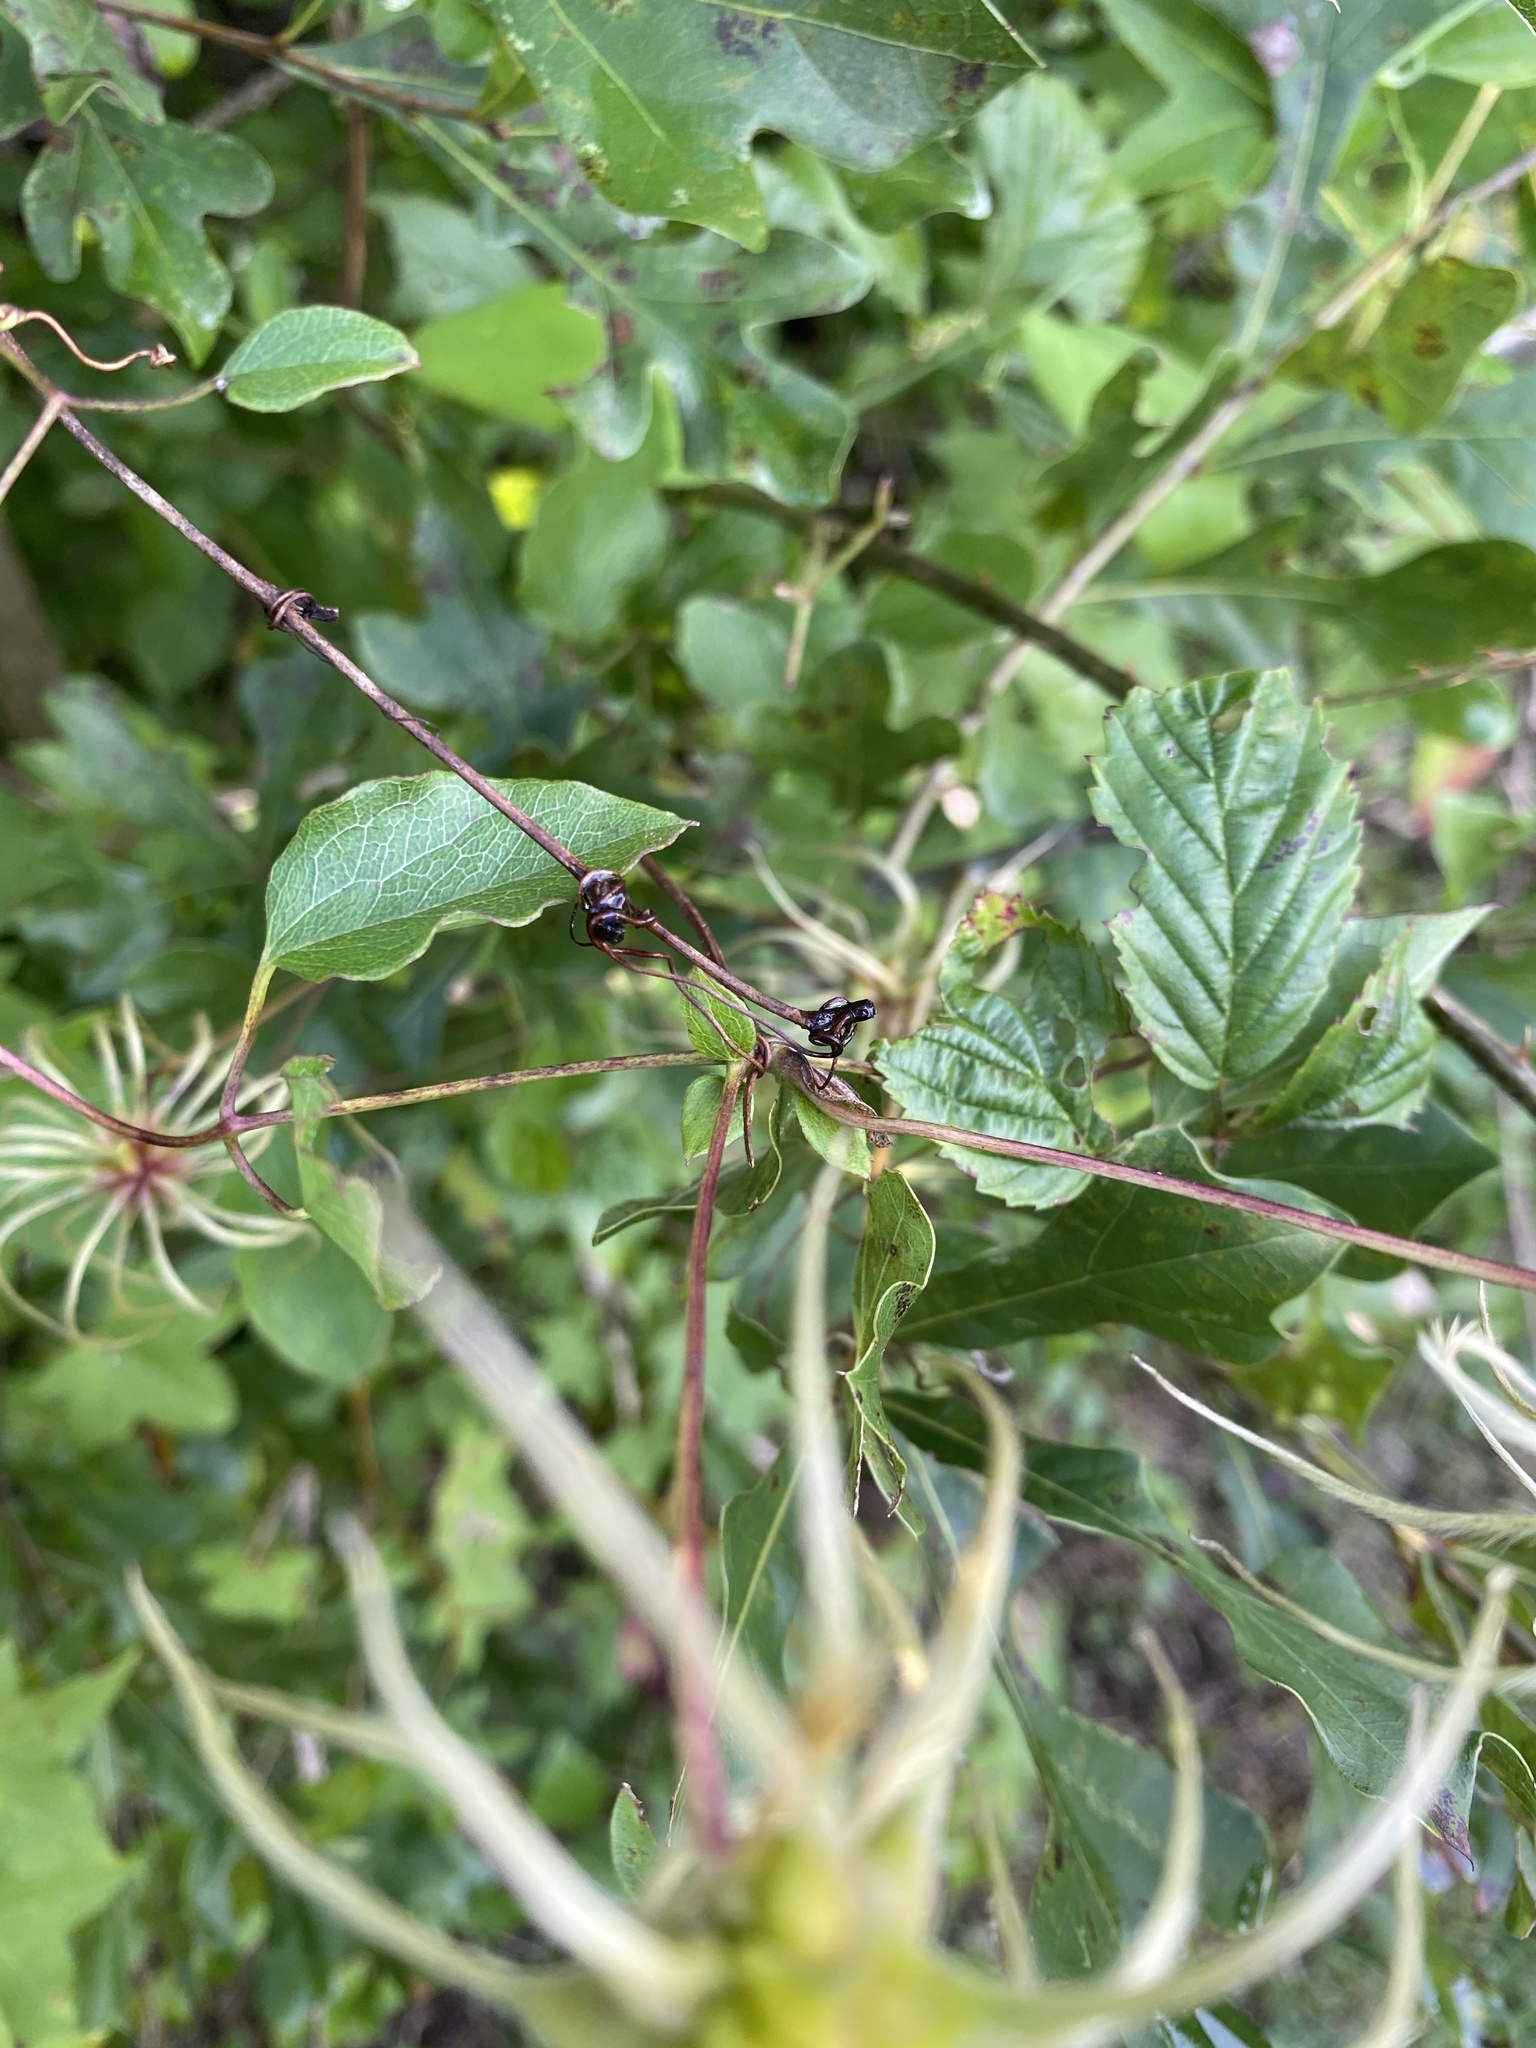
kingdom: Plantae
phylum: Tracheophyta
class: Magnoliopsida
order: Ranunculales
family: Ranunculaceae
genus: Clematis
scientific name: Clematis reticulata
